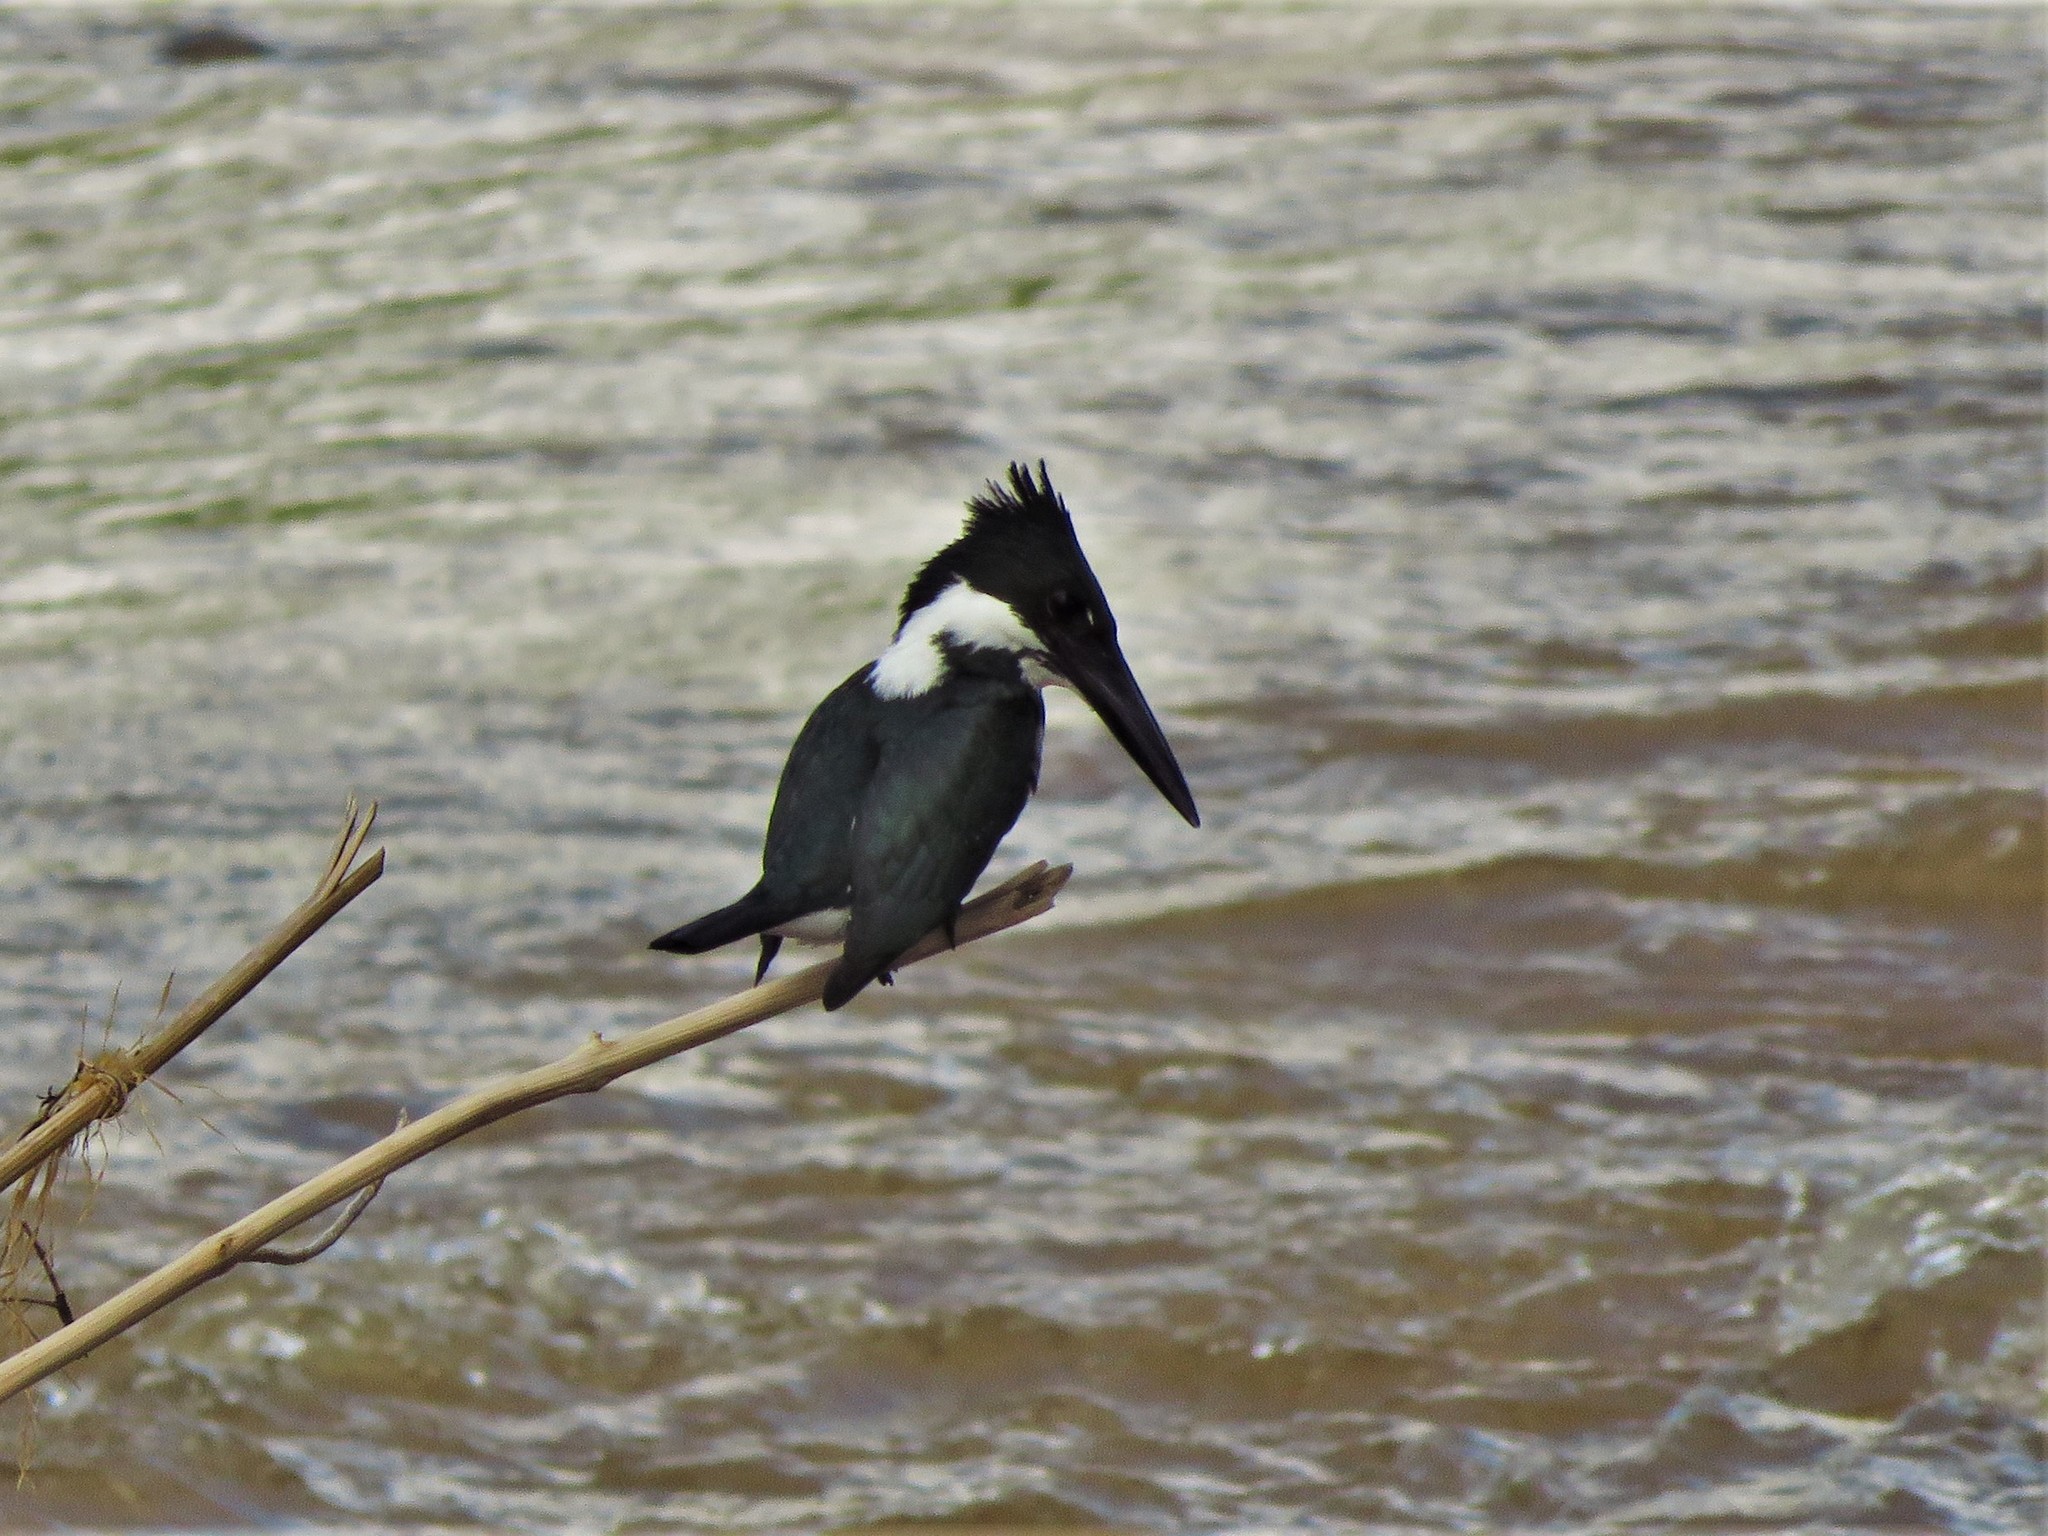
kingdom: Animalia
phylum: Chordata
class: Aves
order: Coraciiformes
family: Alcedinidae
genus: Chloroceryle
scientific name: Chloroceryle amazona
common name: Amazon kingfisher
